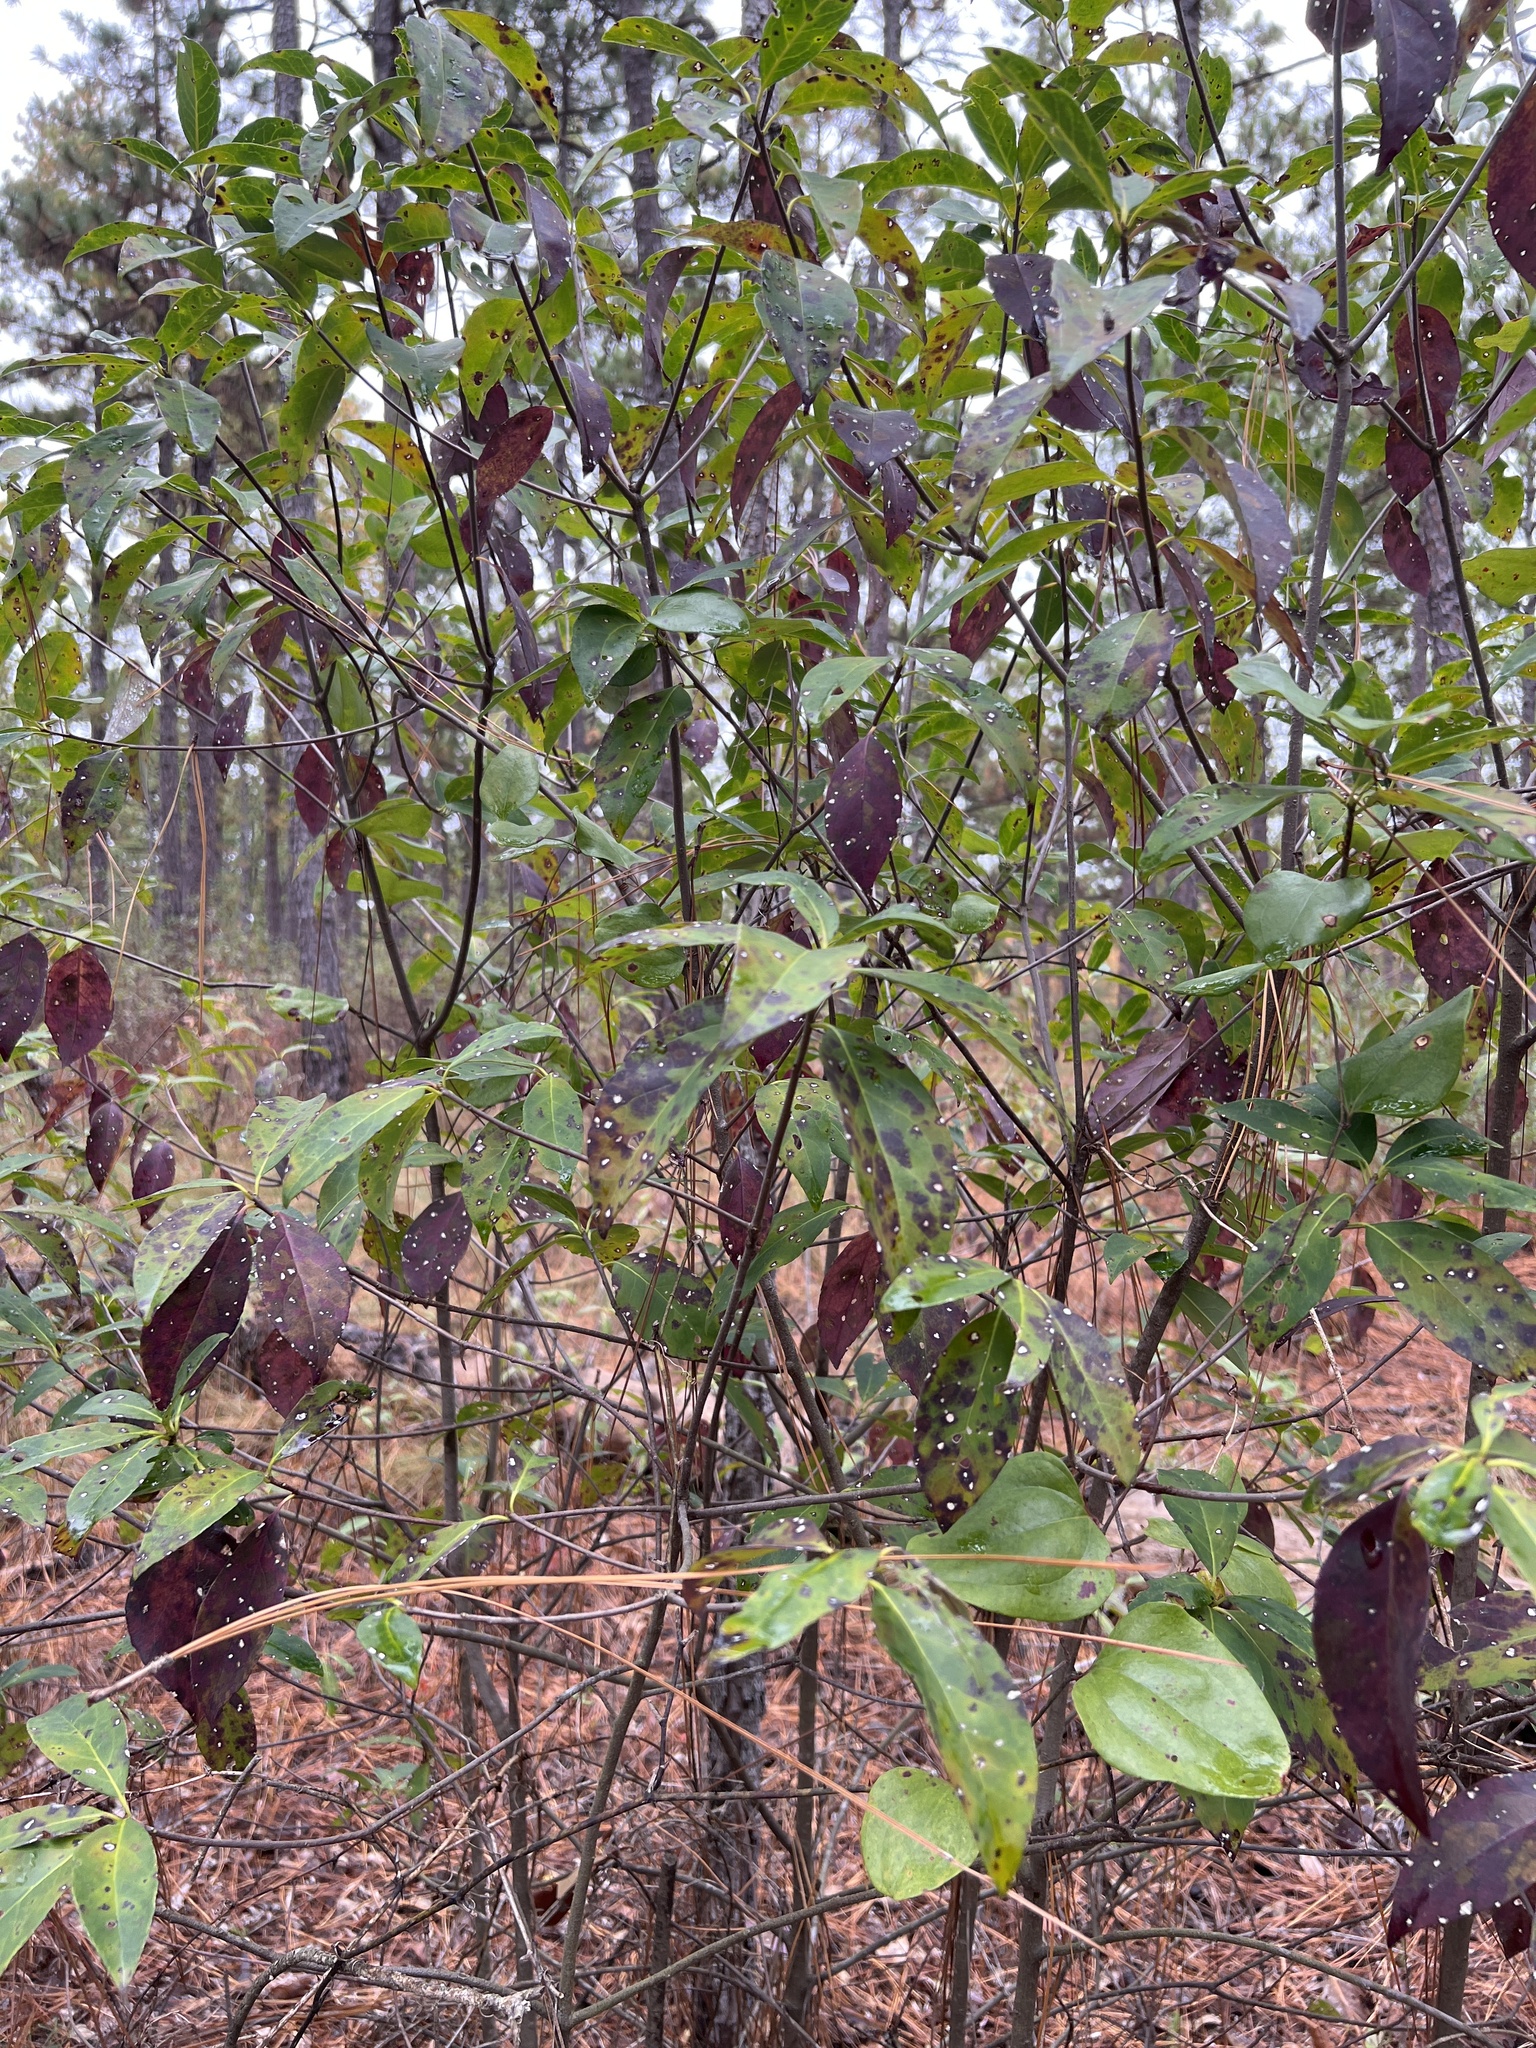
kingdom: Plantae
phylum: Tracheophyta
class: Magnoliopsida
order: Ericales
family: Symplocaceae
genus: Symplocos
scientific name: Symplocos tinctoria
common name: Horse-sugar
